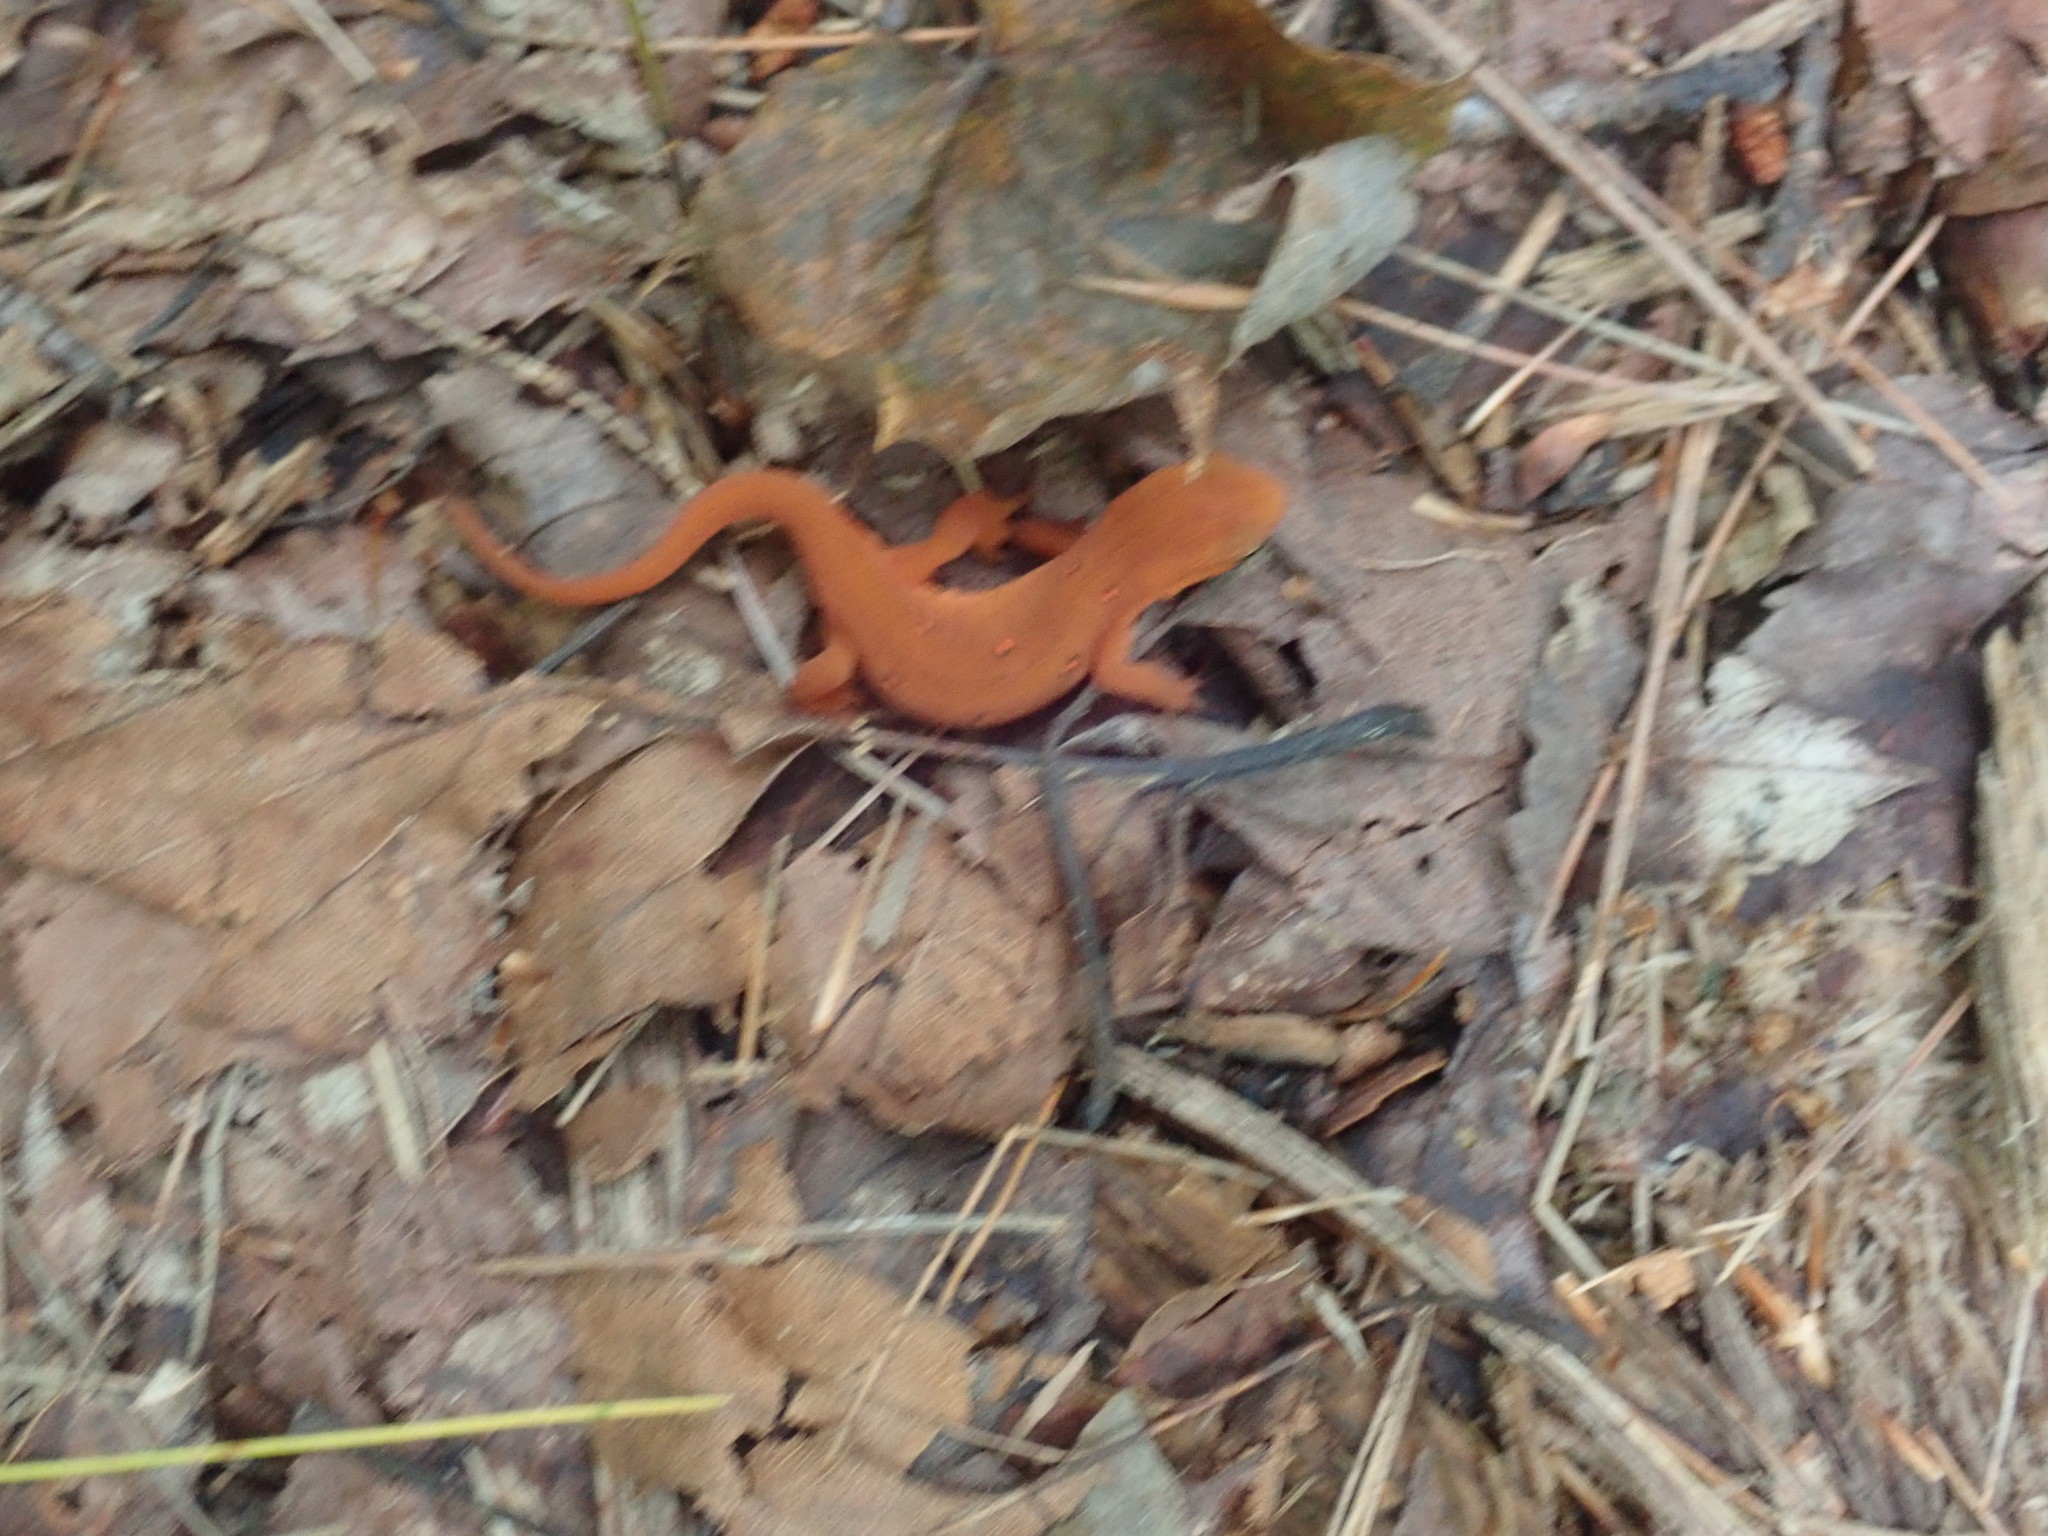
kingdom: Animalia
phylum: Chordata
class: Amphibia
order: Caudata
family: Salamandridae
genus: Notophthalmus
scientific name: Notophthalmus viridescens
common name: Eastern newt
